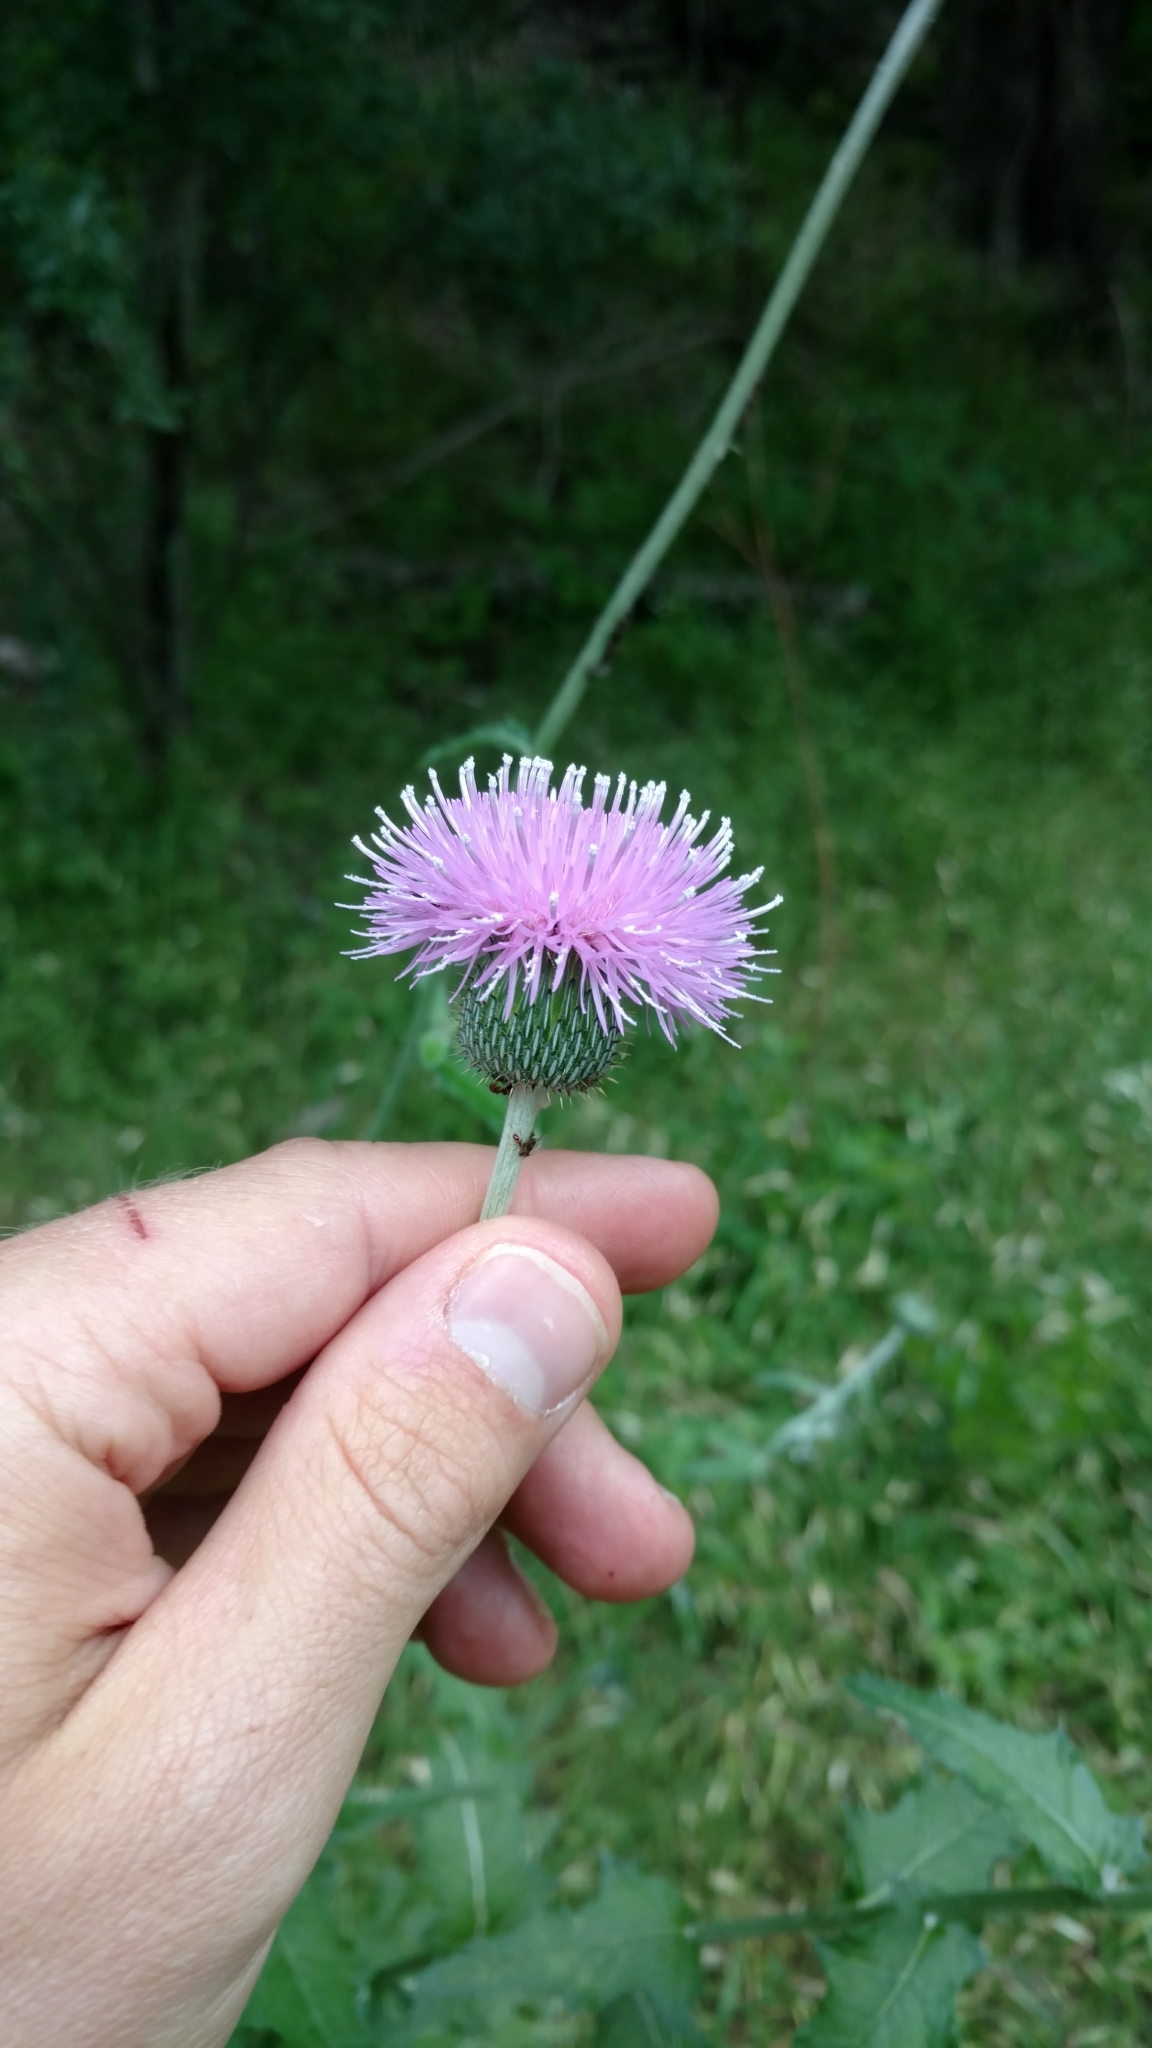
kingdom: Plantae
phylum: Tracheophyta
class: Magnoliopsida
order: Asterales
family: Asteraceae
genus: Cirsium
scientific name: Cirsium texanum
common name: Texas purple thistle
